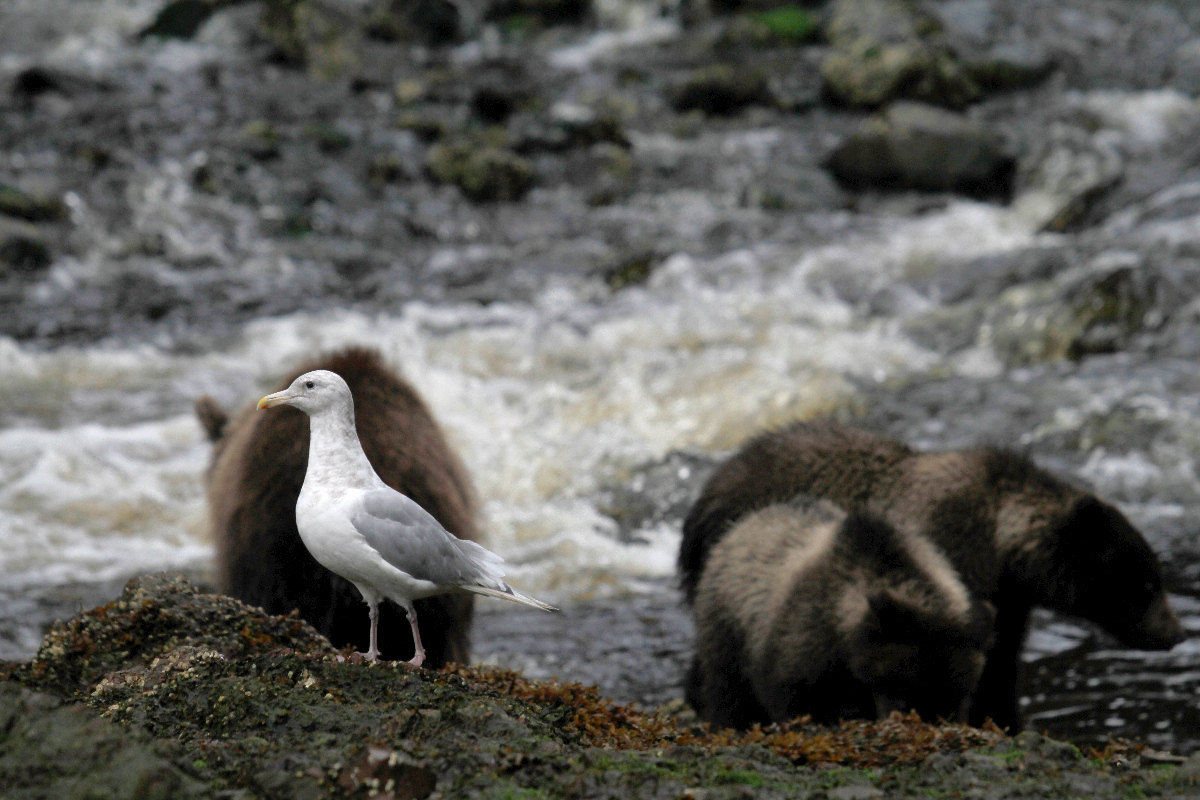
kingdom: Animalia
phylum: Chordata
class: Aves
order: Charadriiformes
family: Laridae
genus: Larus
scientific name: Larus
